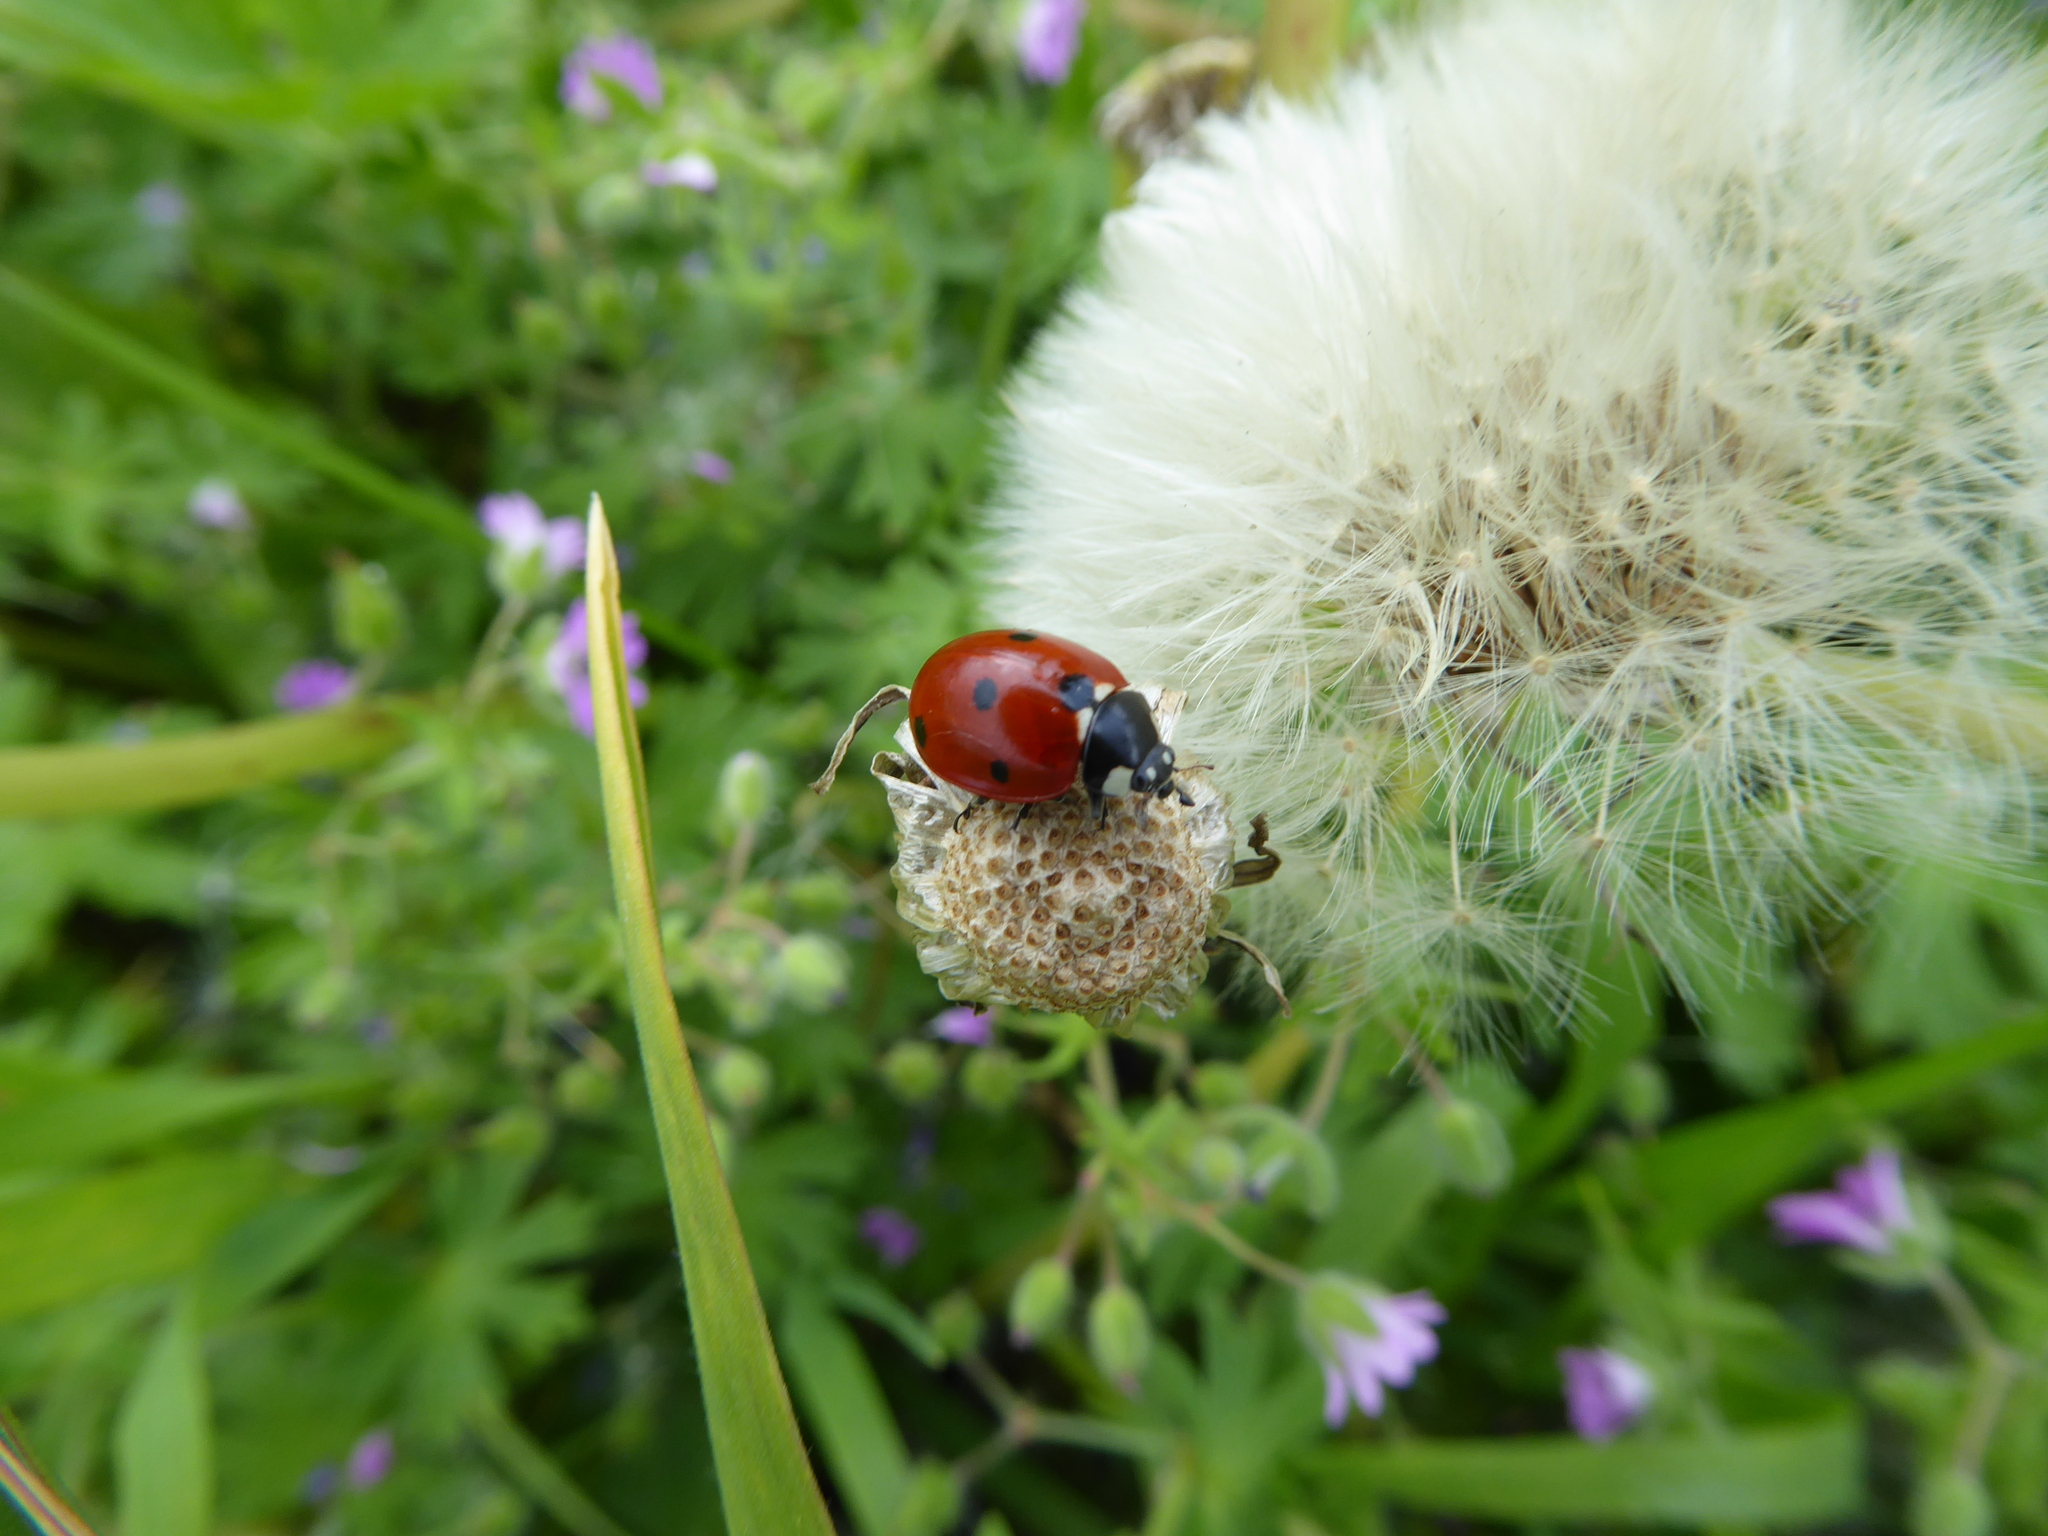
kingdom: Animalia
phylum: Arthropoda
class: Insecta
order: Coleoptera
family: Coccinellidae
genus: Coccinella
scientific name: Coccinella septempunctata
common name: Sevenspotted lady beetle
